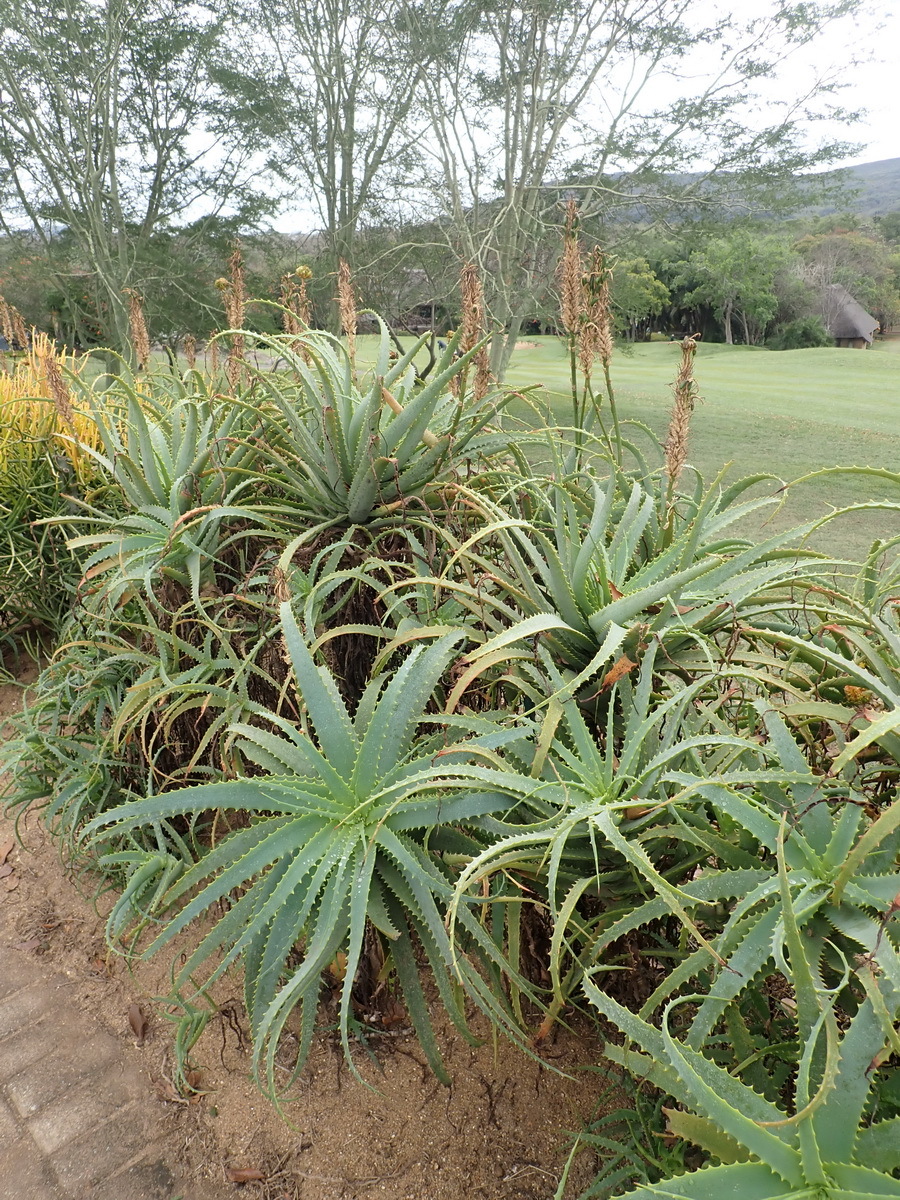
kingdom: Plantae
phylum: Tracheophyta
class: Liliopsida
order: Asparagales
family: Asphodelaceae
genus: Aloe
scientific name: Aloe arborescens
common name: Candelabra aloe
